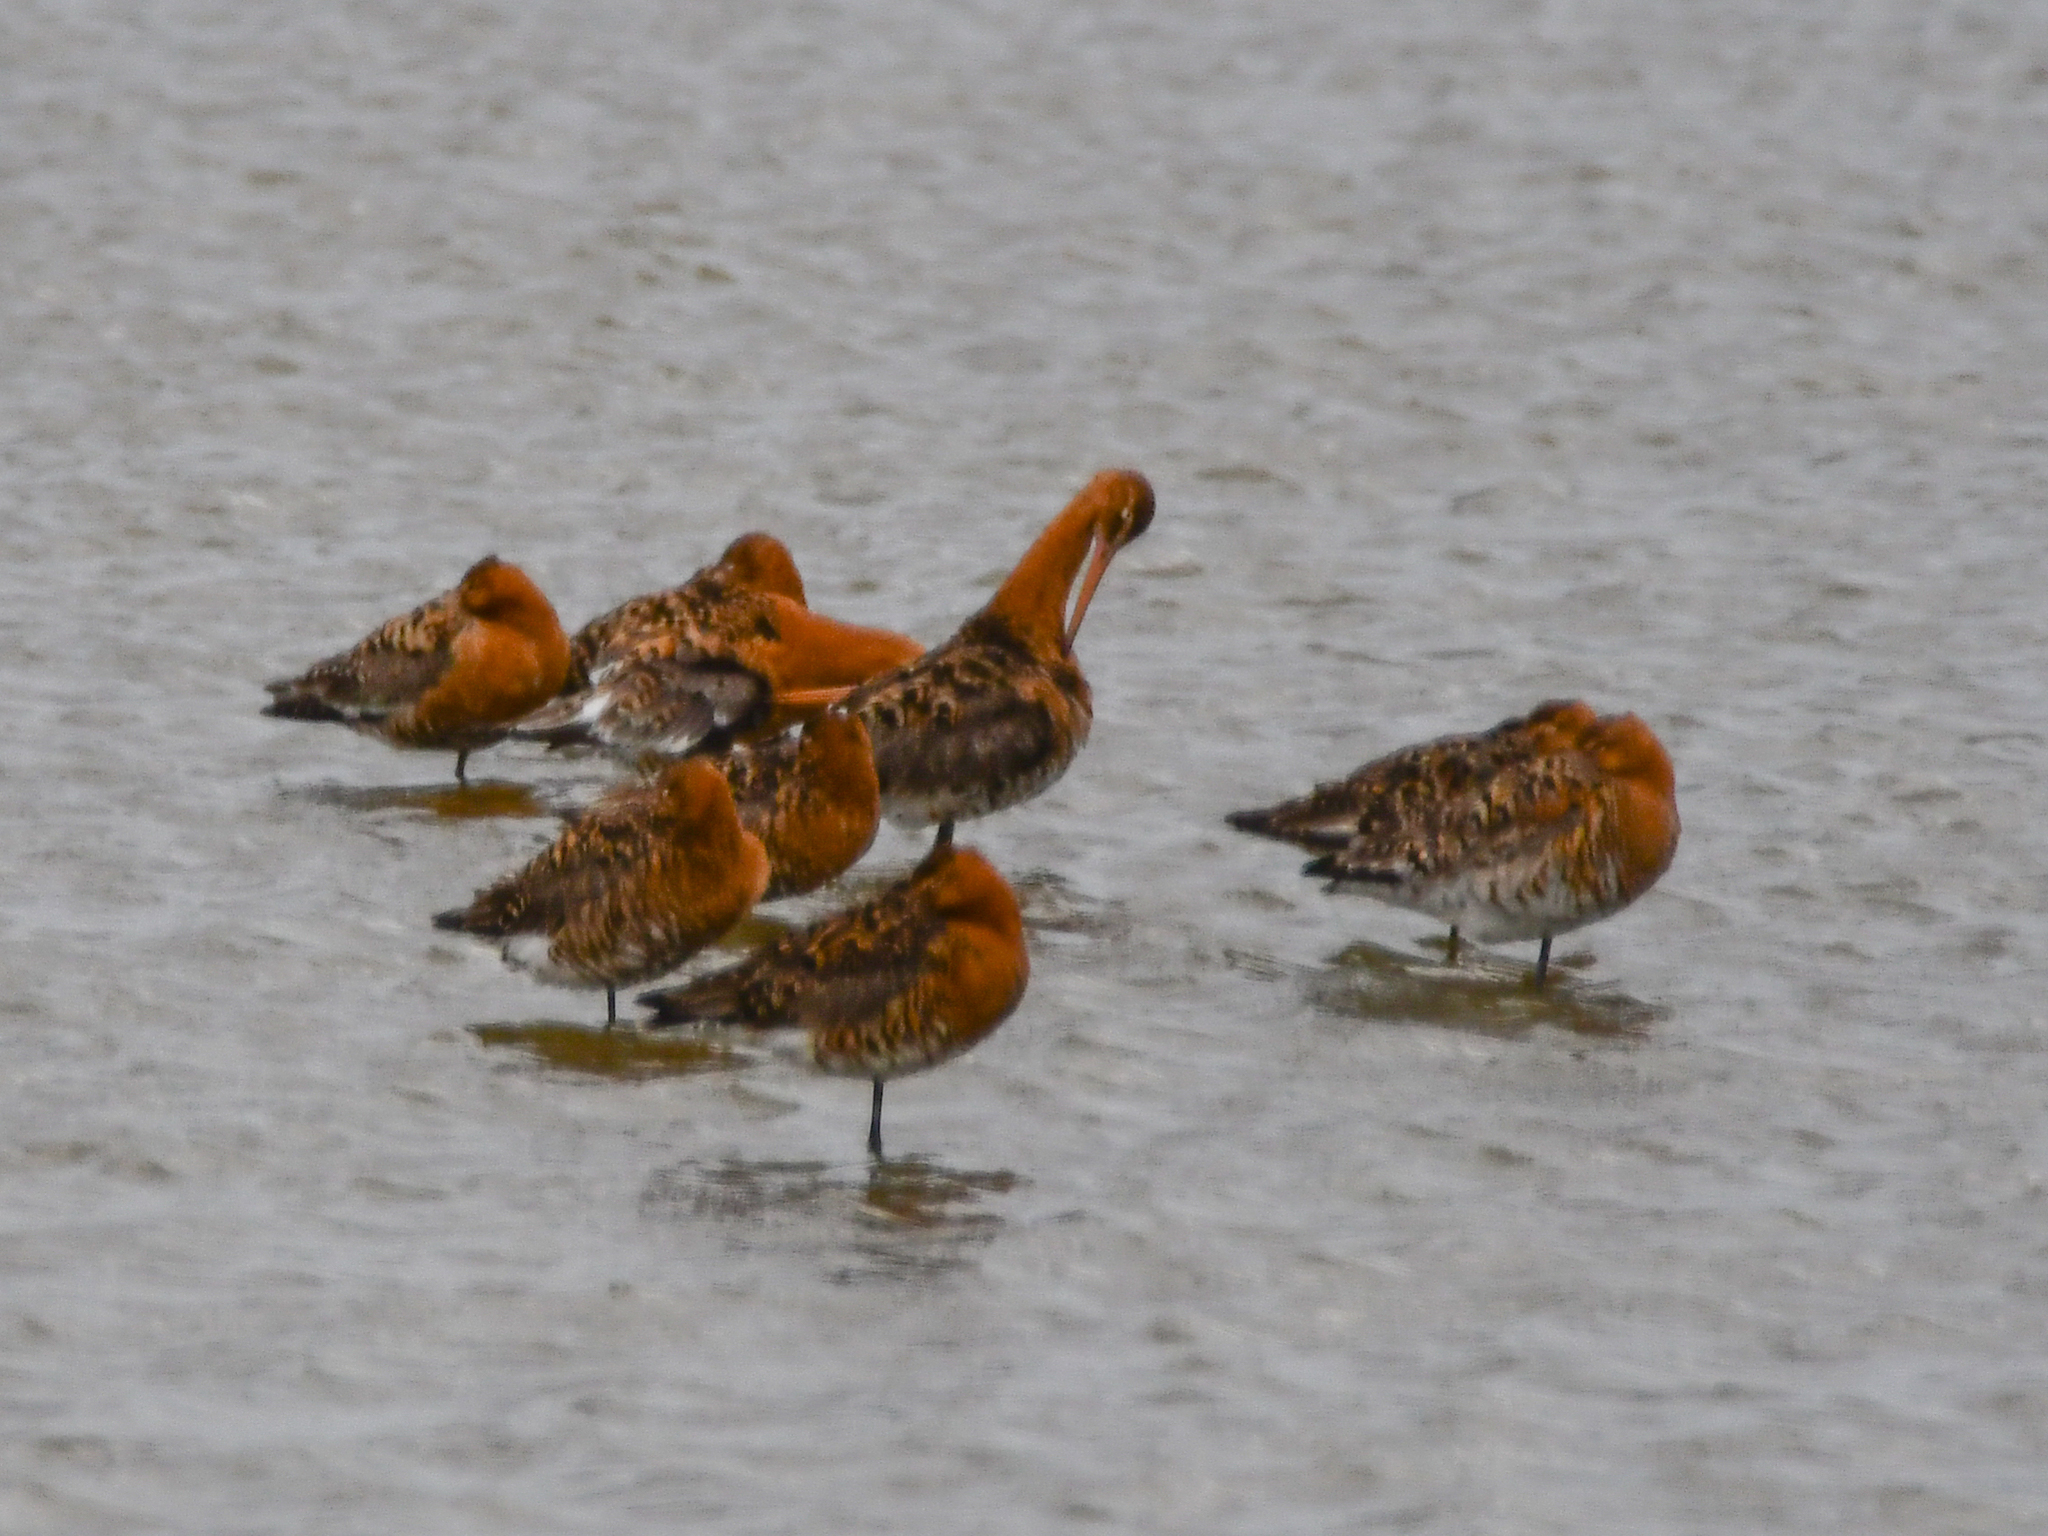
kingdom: Animalia
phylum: Chordata
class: Aves
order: Charadriiformes
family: Scolopacidae
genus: Limosa
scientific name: Limosa limosa
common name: Black-tailed godwit
